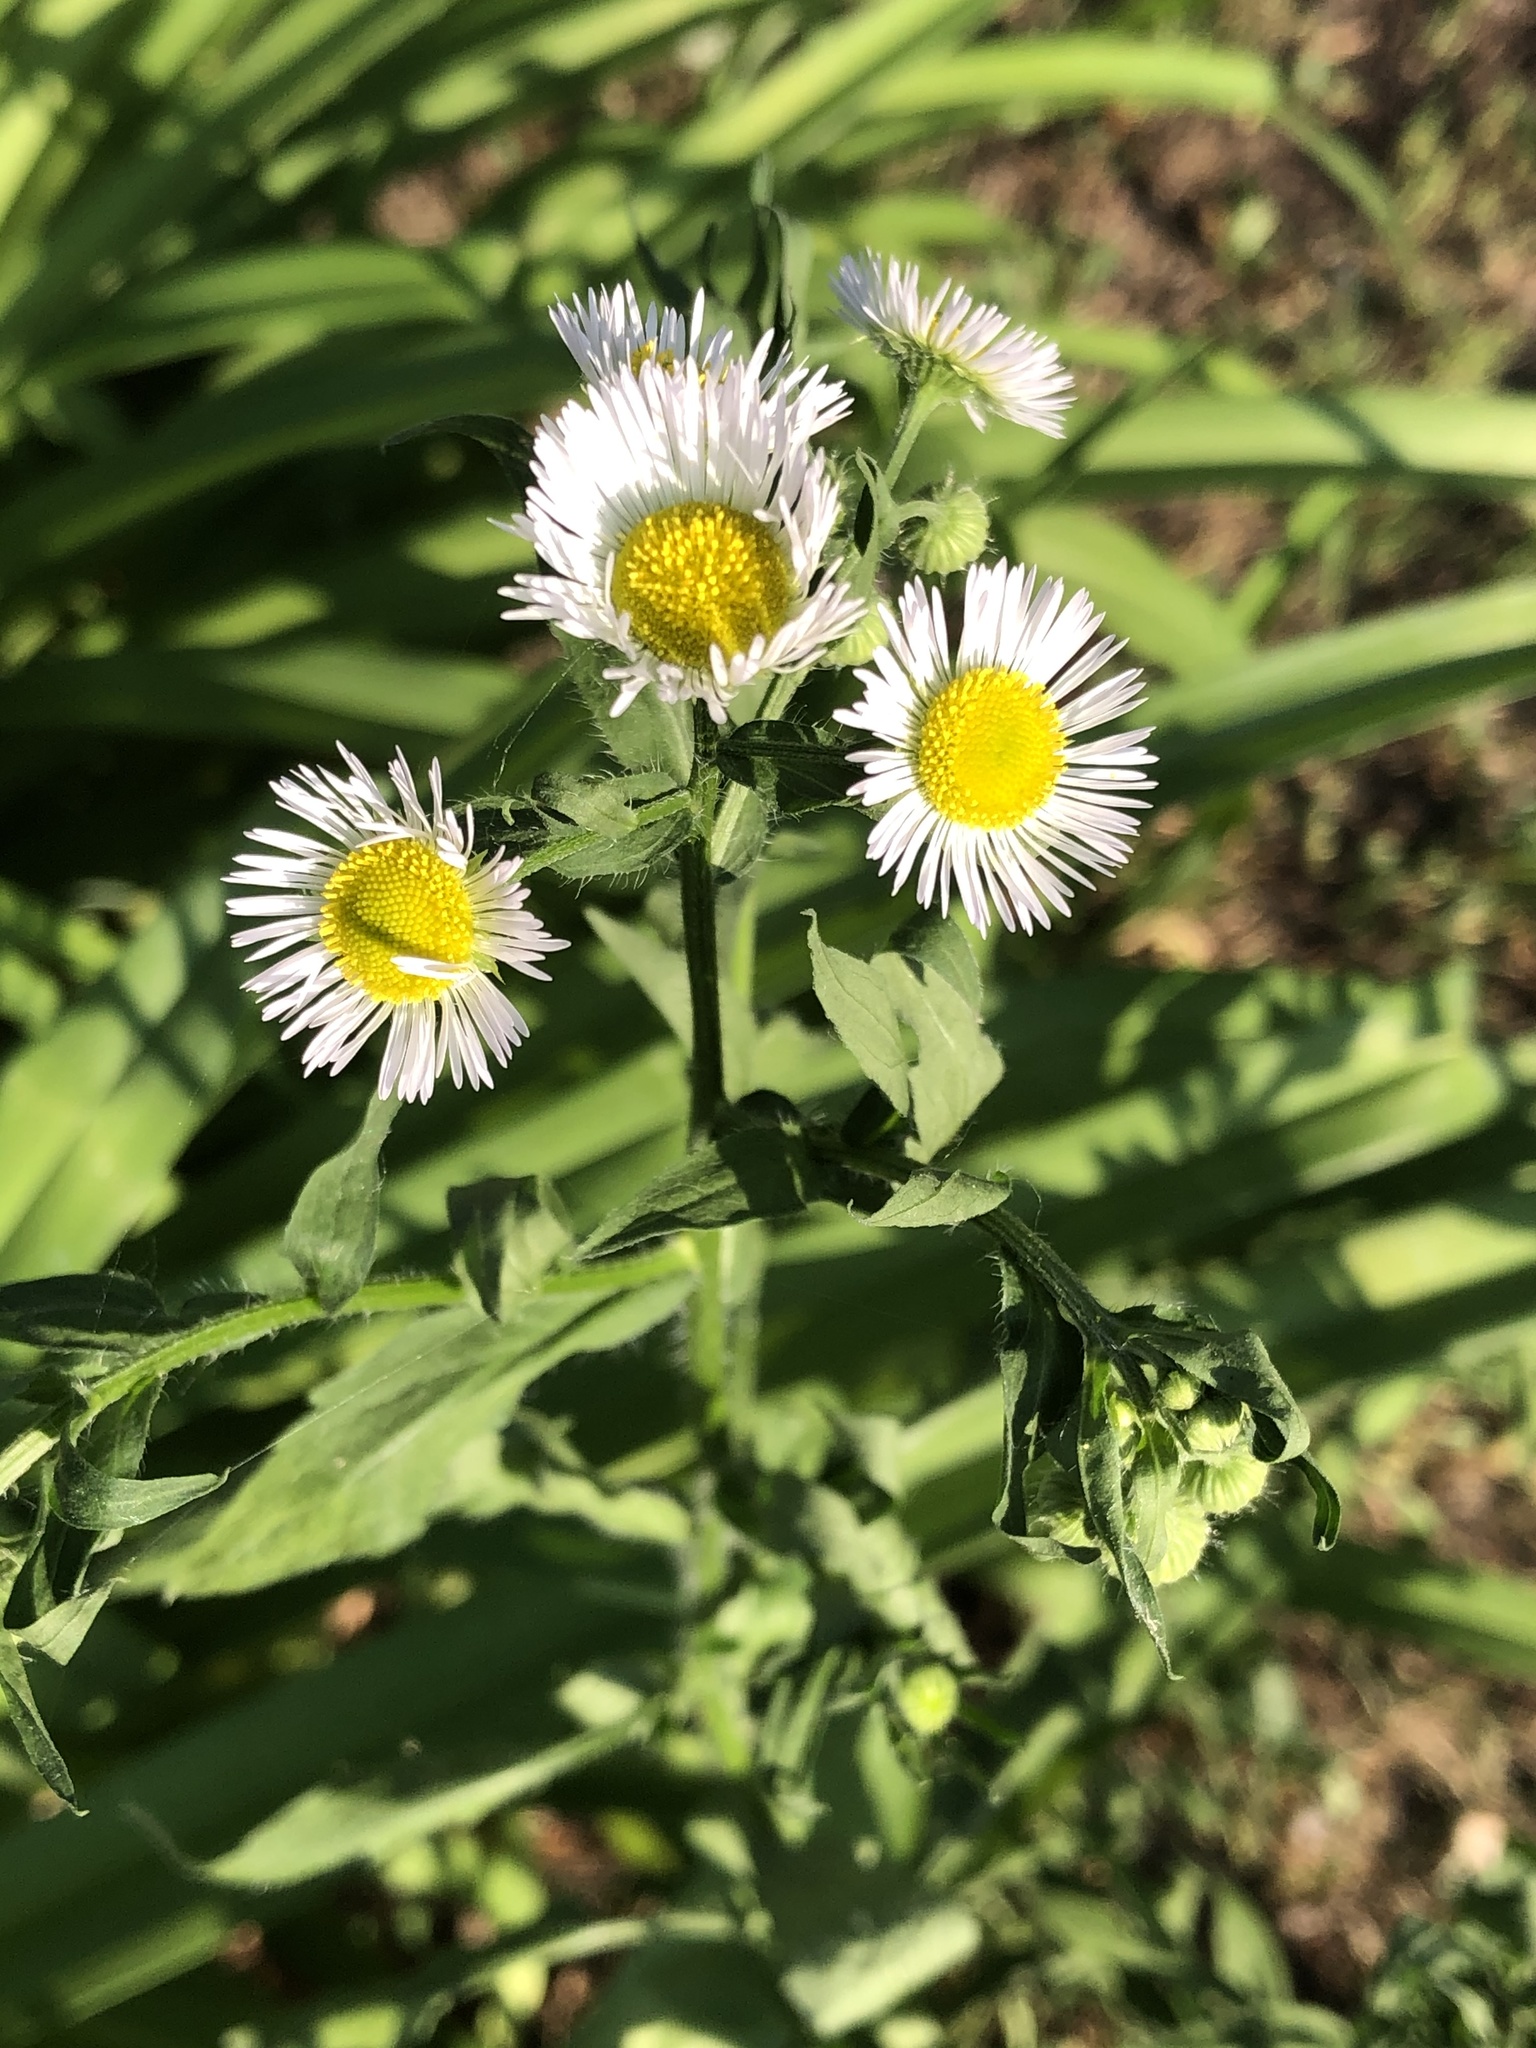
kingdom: Plantae
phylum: Tracheophyta
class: Magnoliopsida
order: Asterales
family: Asteraceae
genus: Erigeron
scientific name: Erigeron annuus
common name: Tall fleabane
